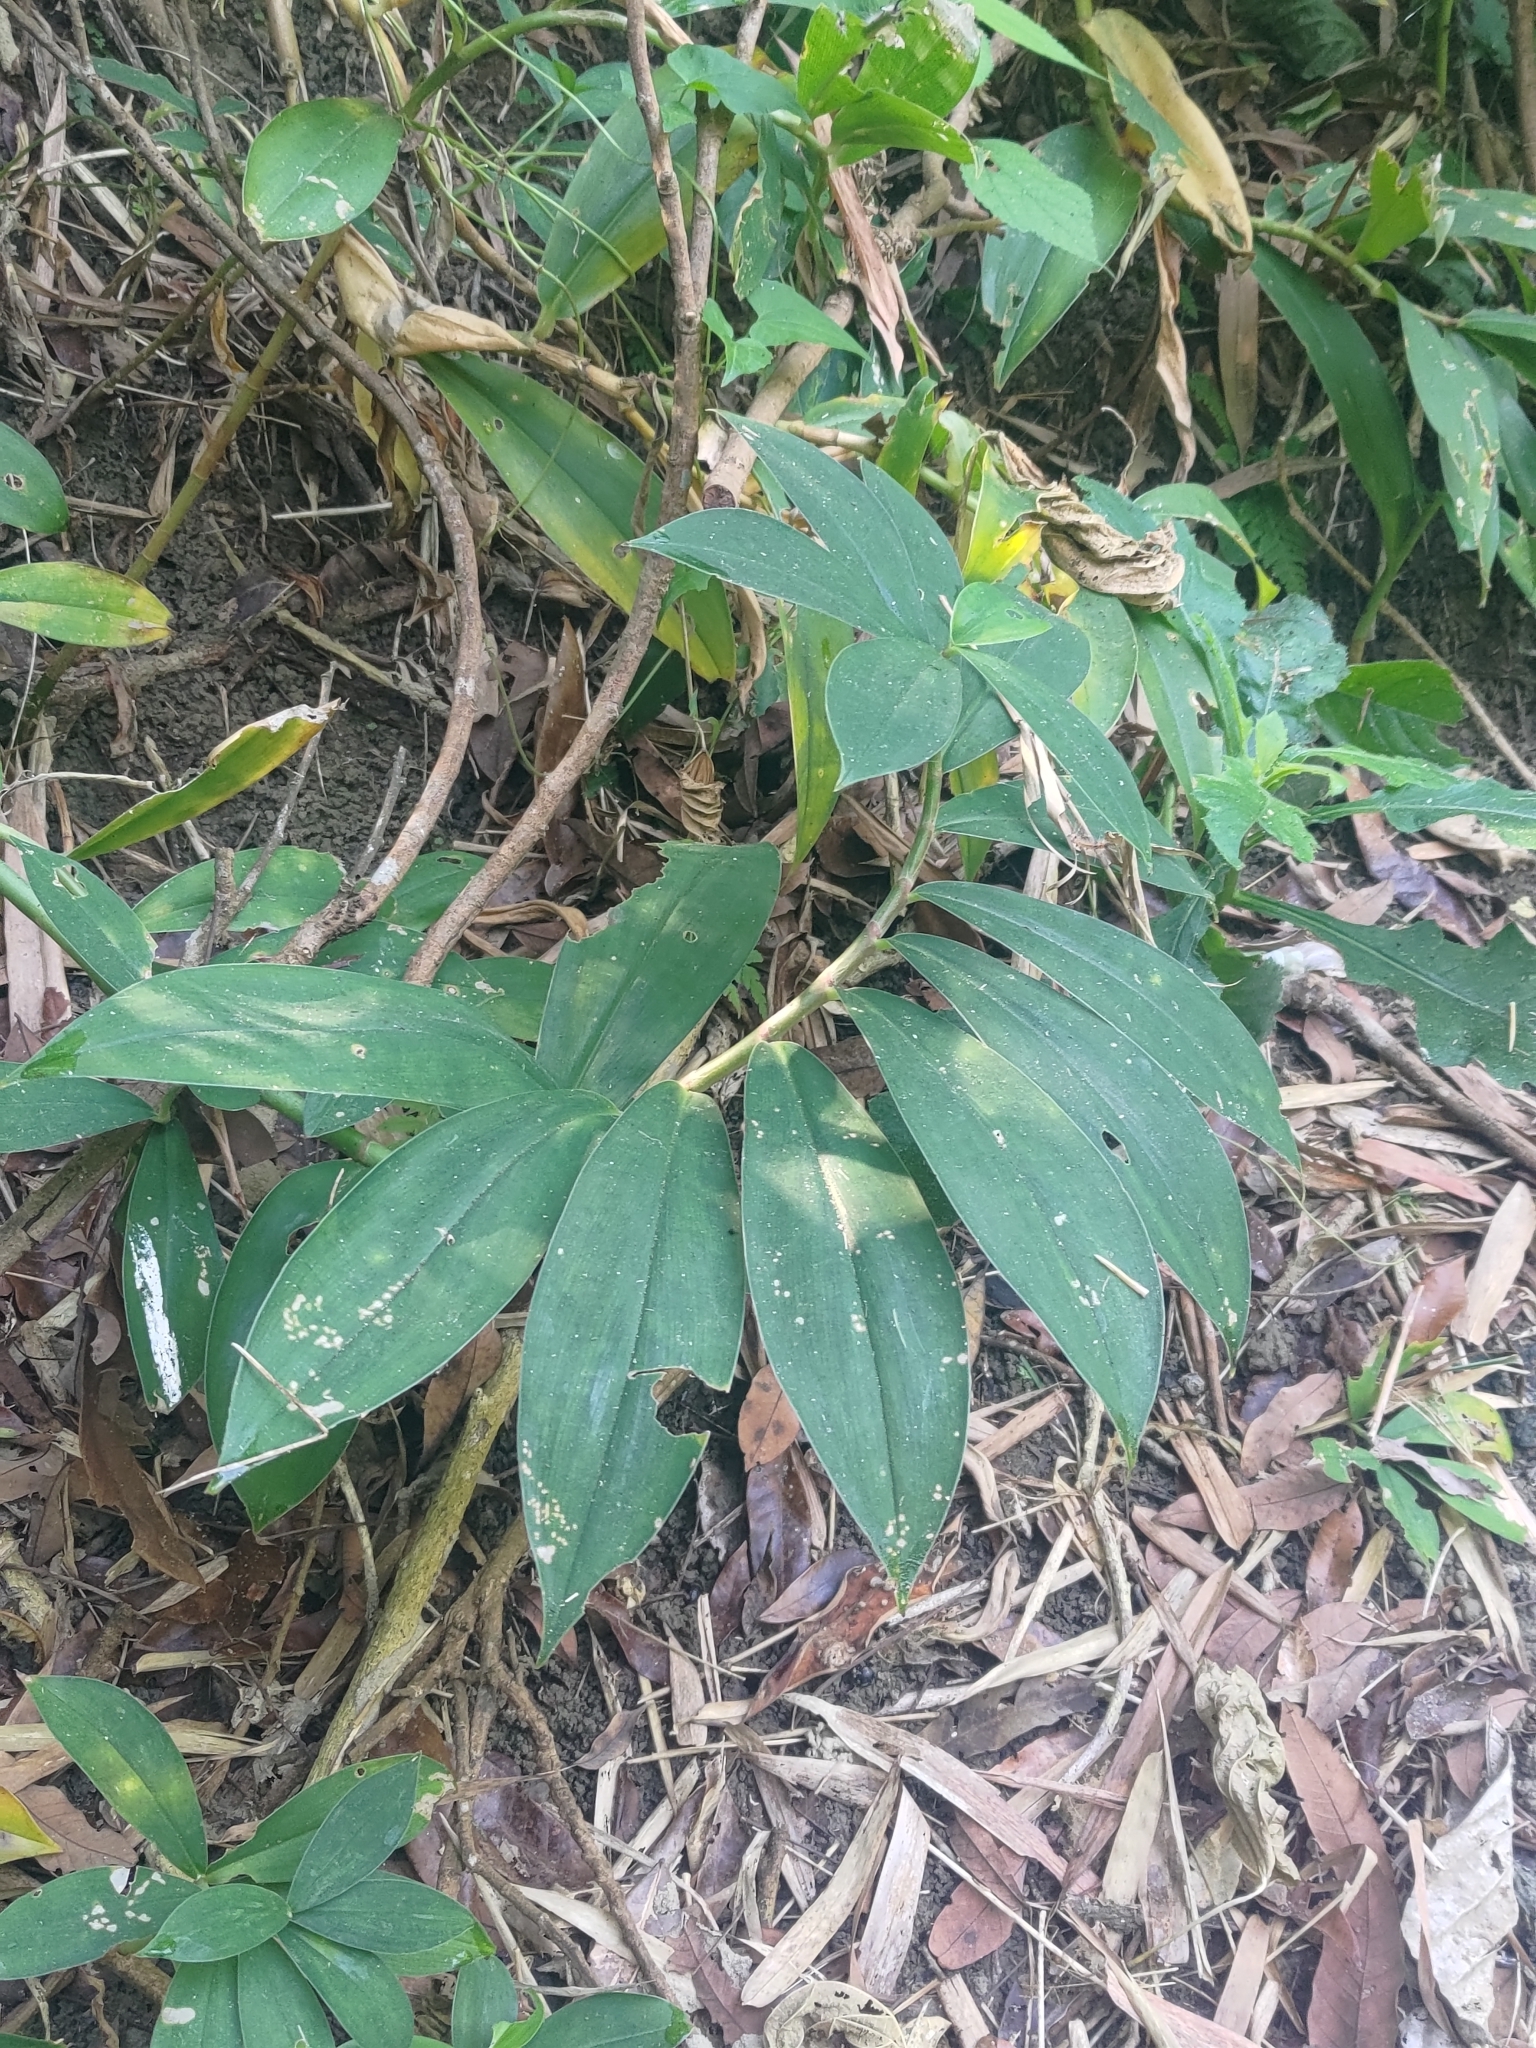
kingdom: Plantae
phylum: Tracheophyta
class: Liliopsida
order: Zingiberales
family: Costaceae
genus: Hellenia
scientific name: Hellenia speciosa
